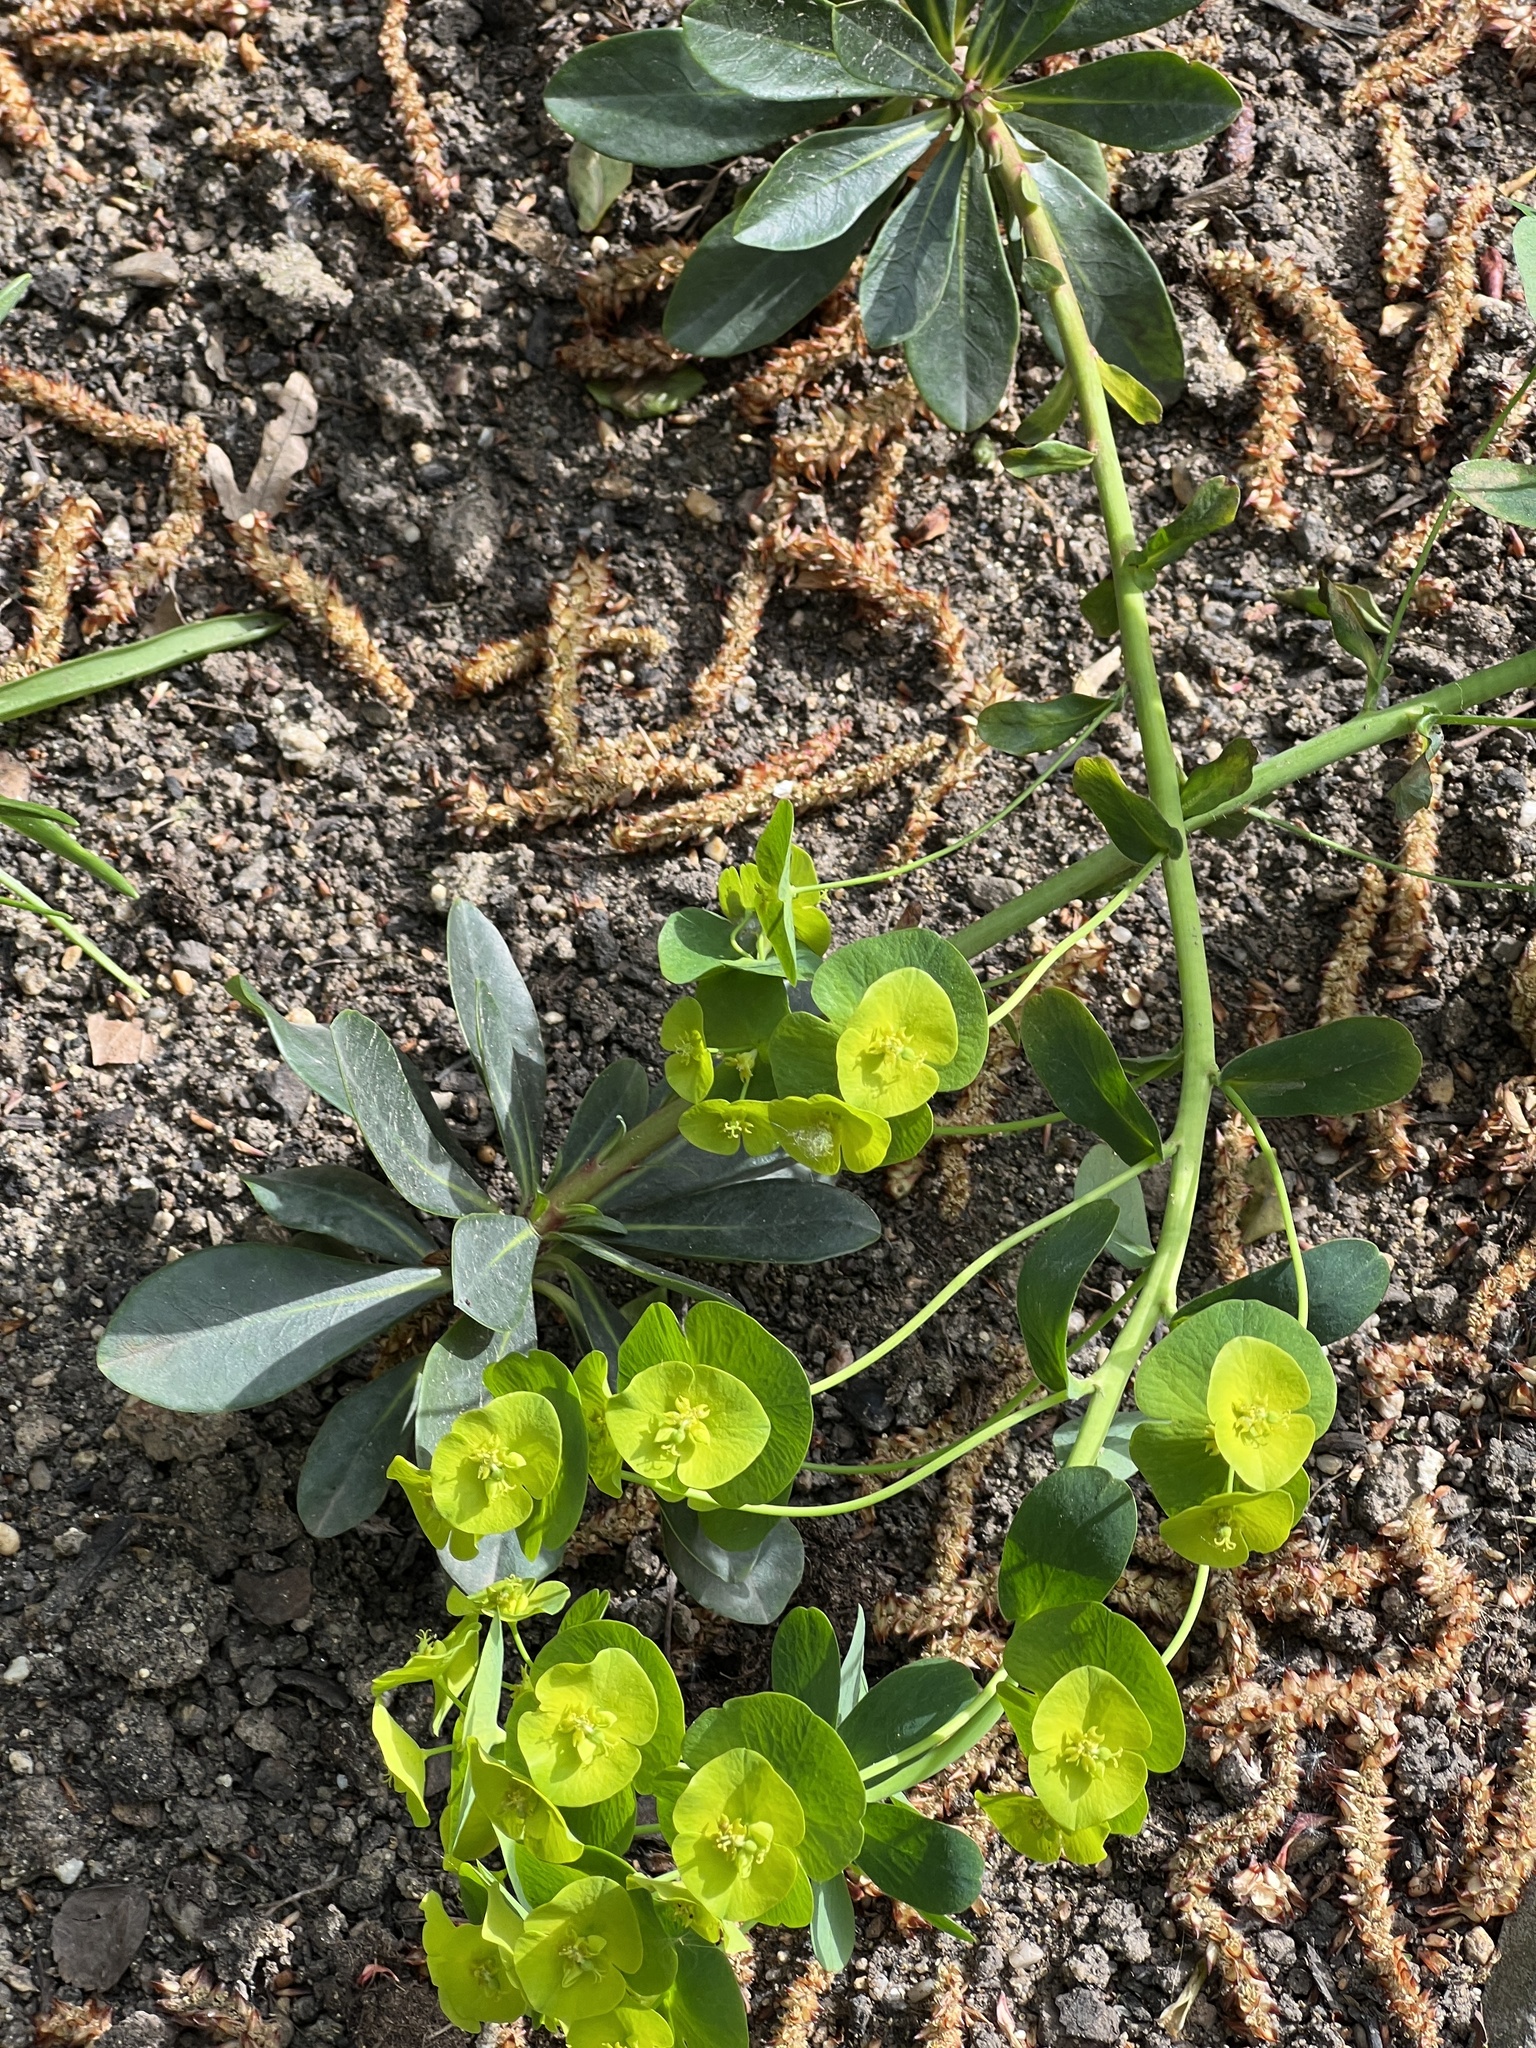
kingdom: Plantae
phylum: Tracheophyta
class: Magnoliopsida
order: Malpighiales
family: Euphorbiaceae
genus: Euphorbia
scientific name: Euphorbia amygdaloides
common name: Wood spurge
